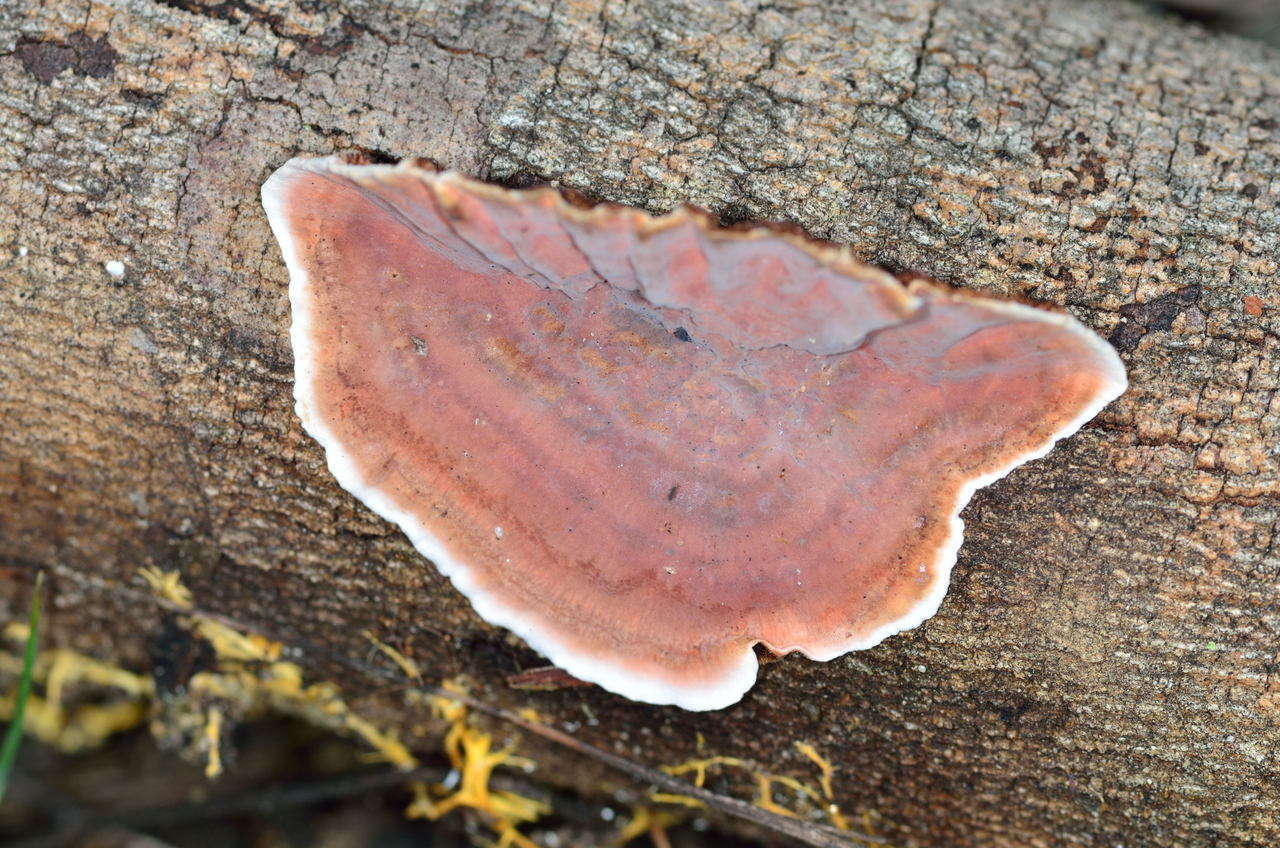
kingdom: Fungi
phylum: Basidiomycota
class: Agaricomycetes
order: Russulales
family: Stereaceae
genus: Xylobolus
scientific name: Xylobolus illudens
